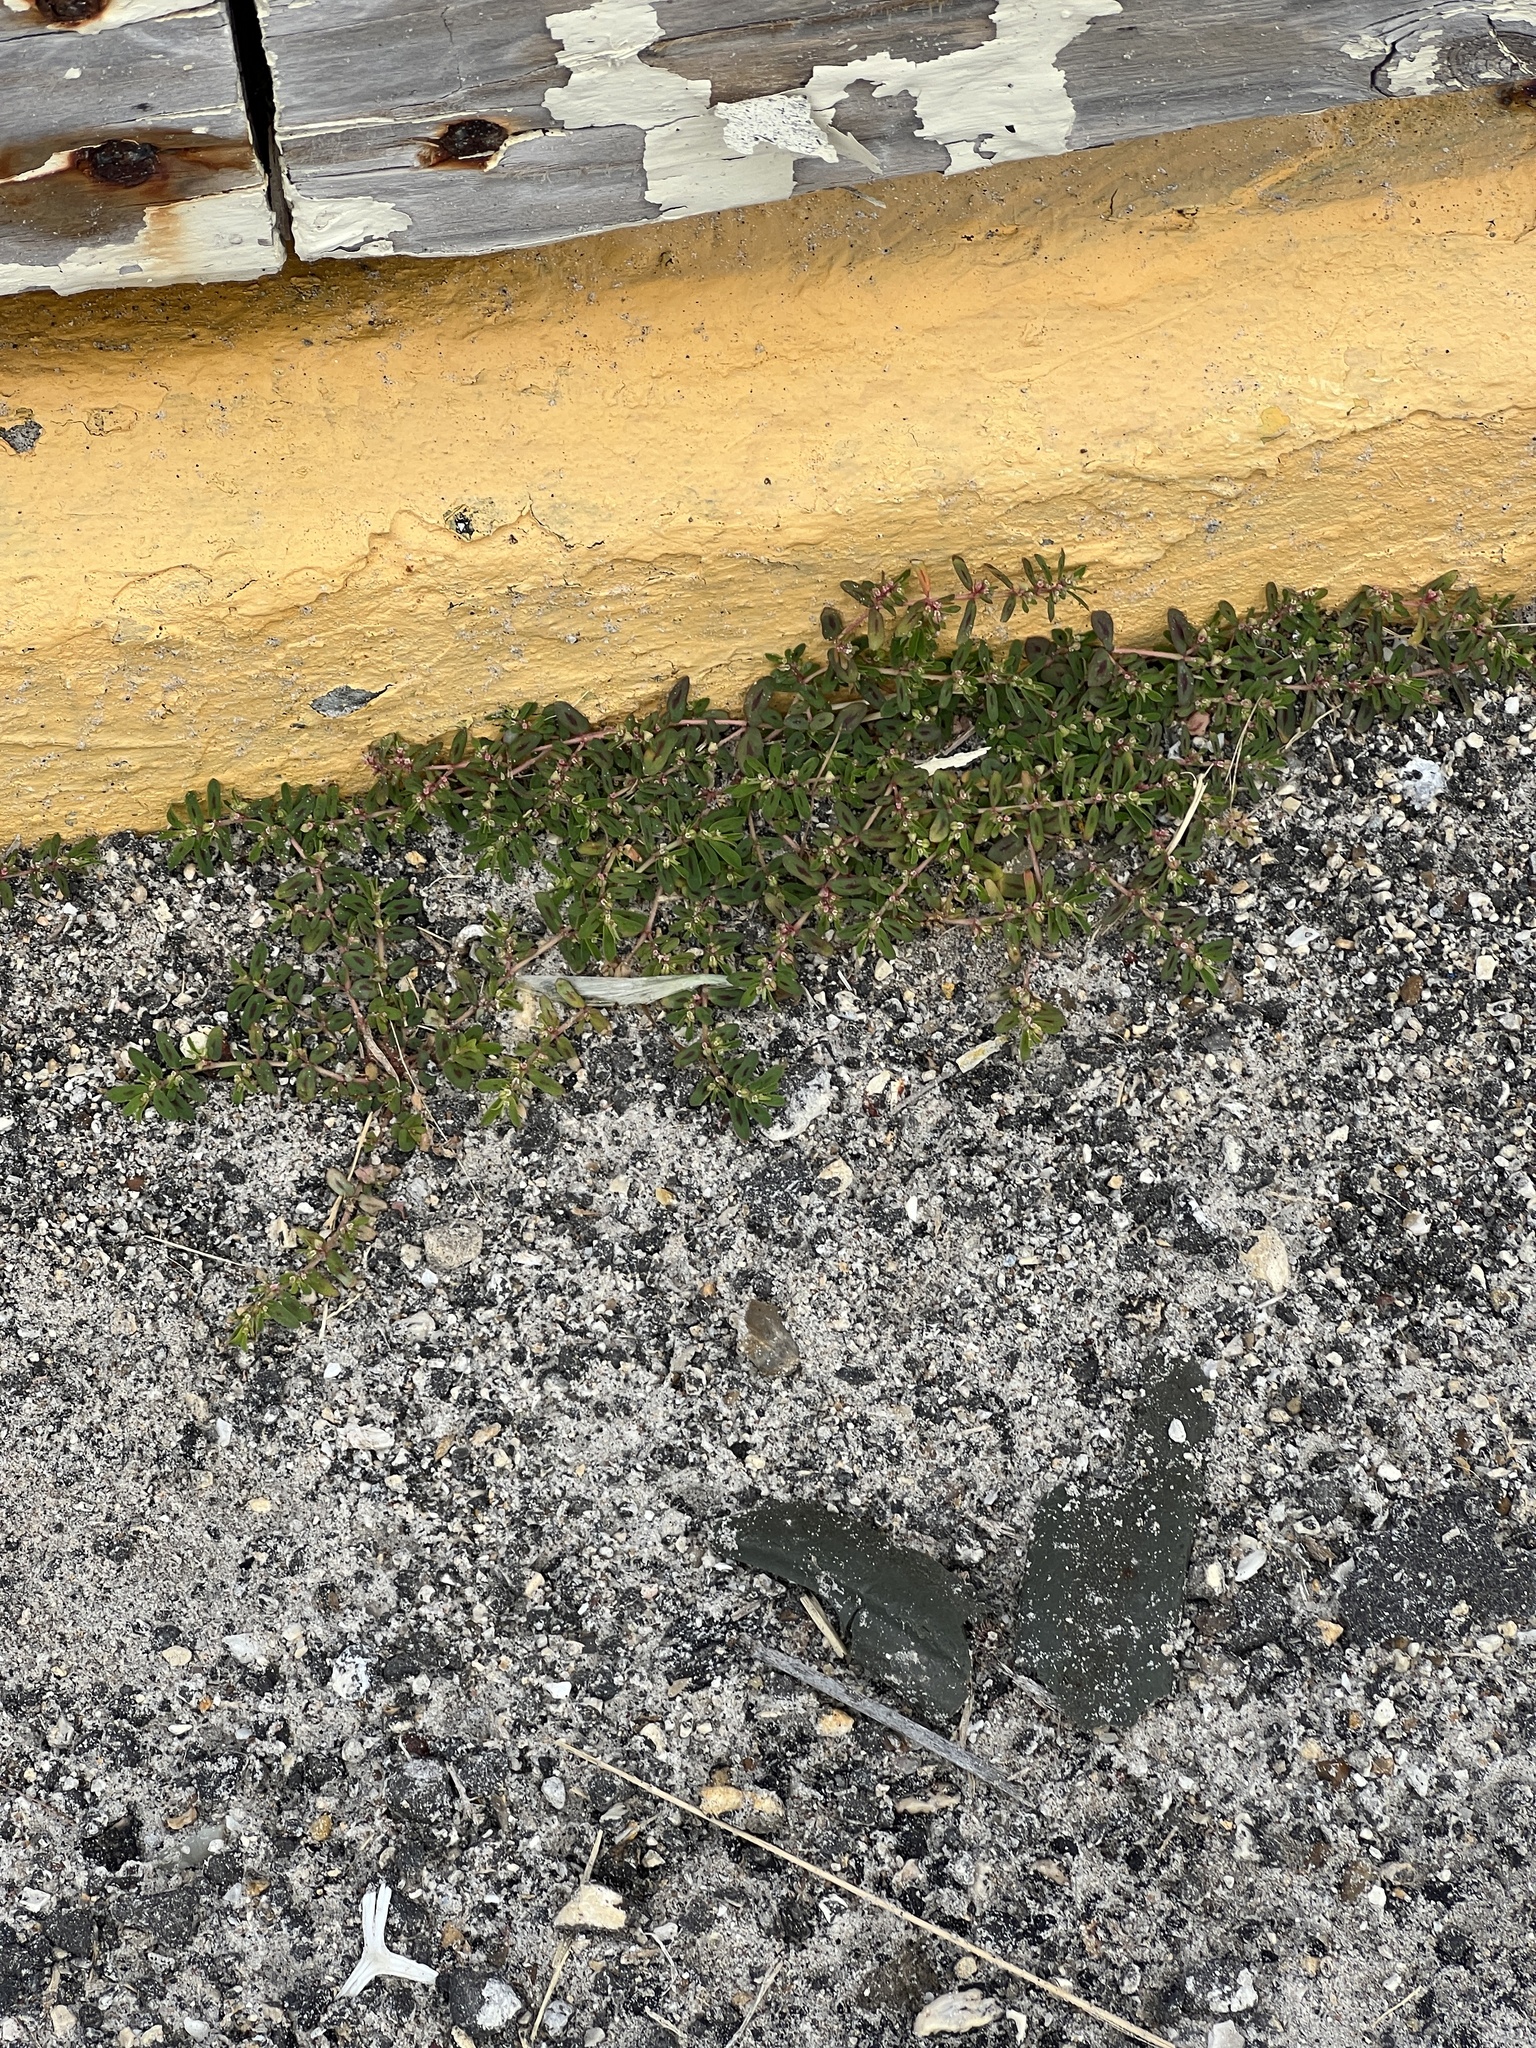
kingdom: Plantae
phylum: Tracheophyta
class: Magnoliopsida
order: Malpighiales
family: Euphorbiaceae
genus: Euphorbia
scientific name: Euphorbia maculata
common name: Spotted spurge
